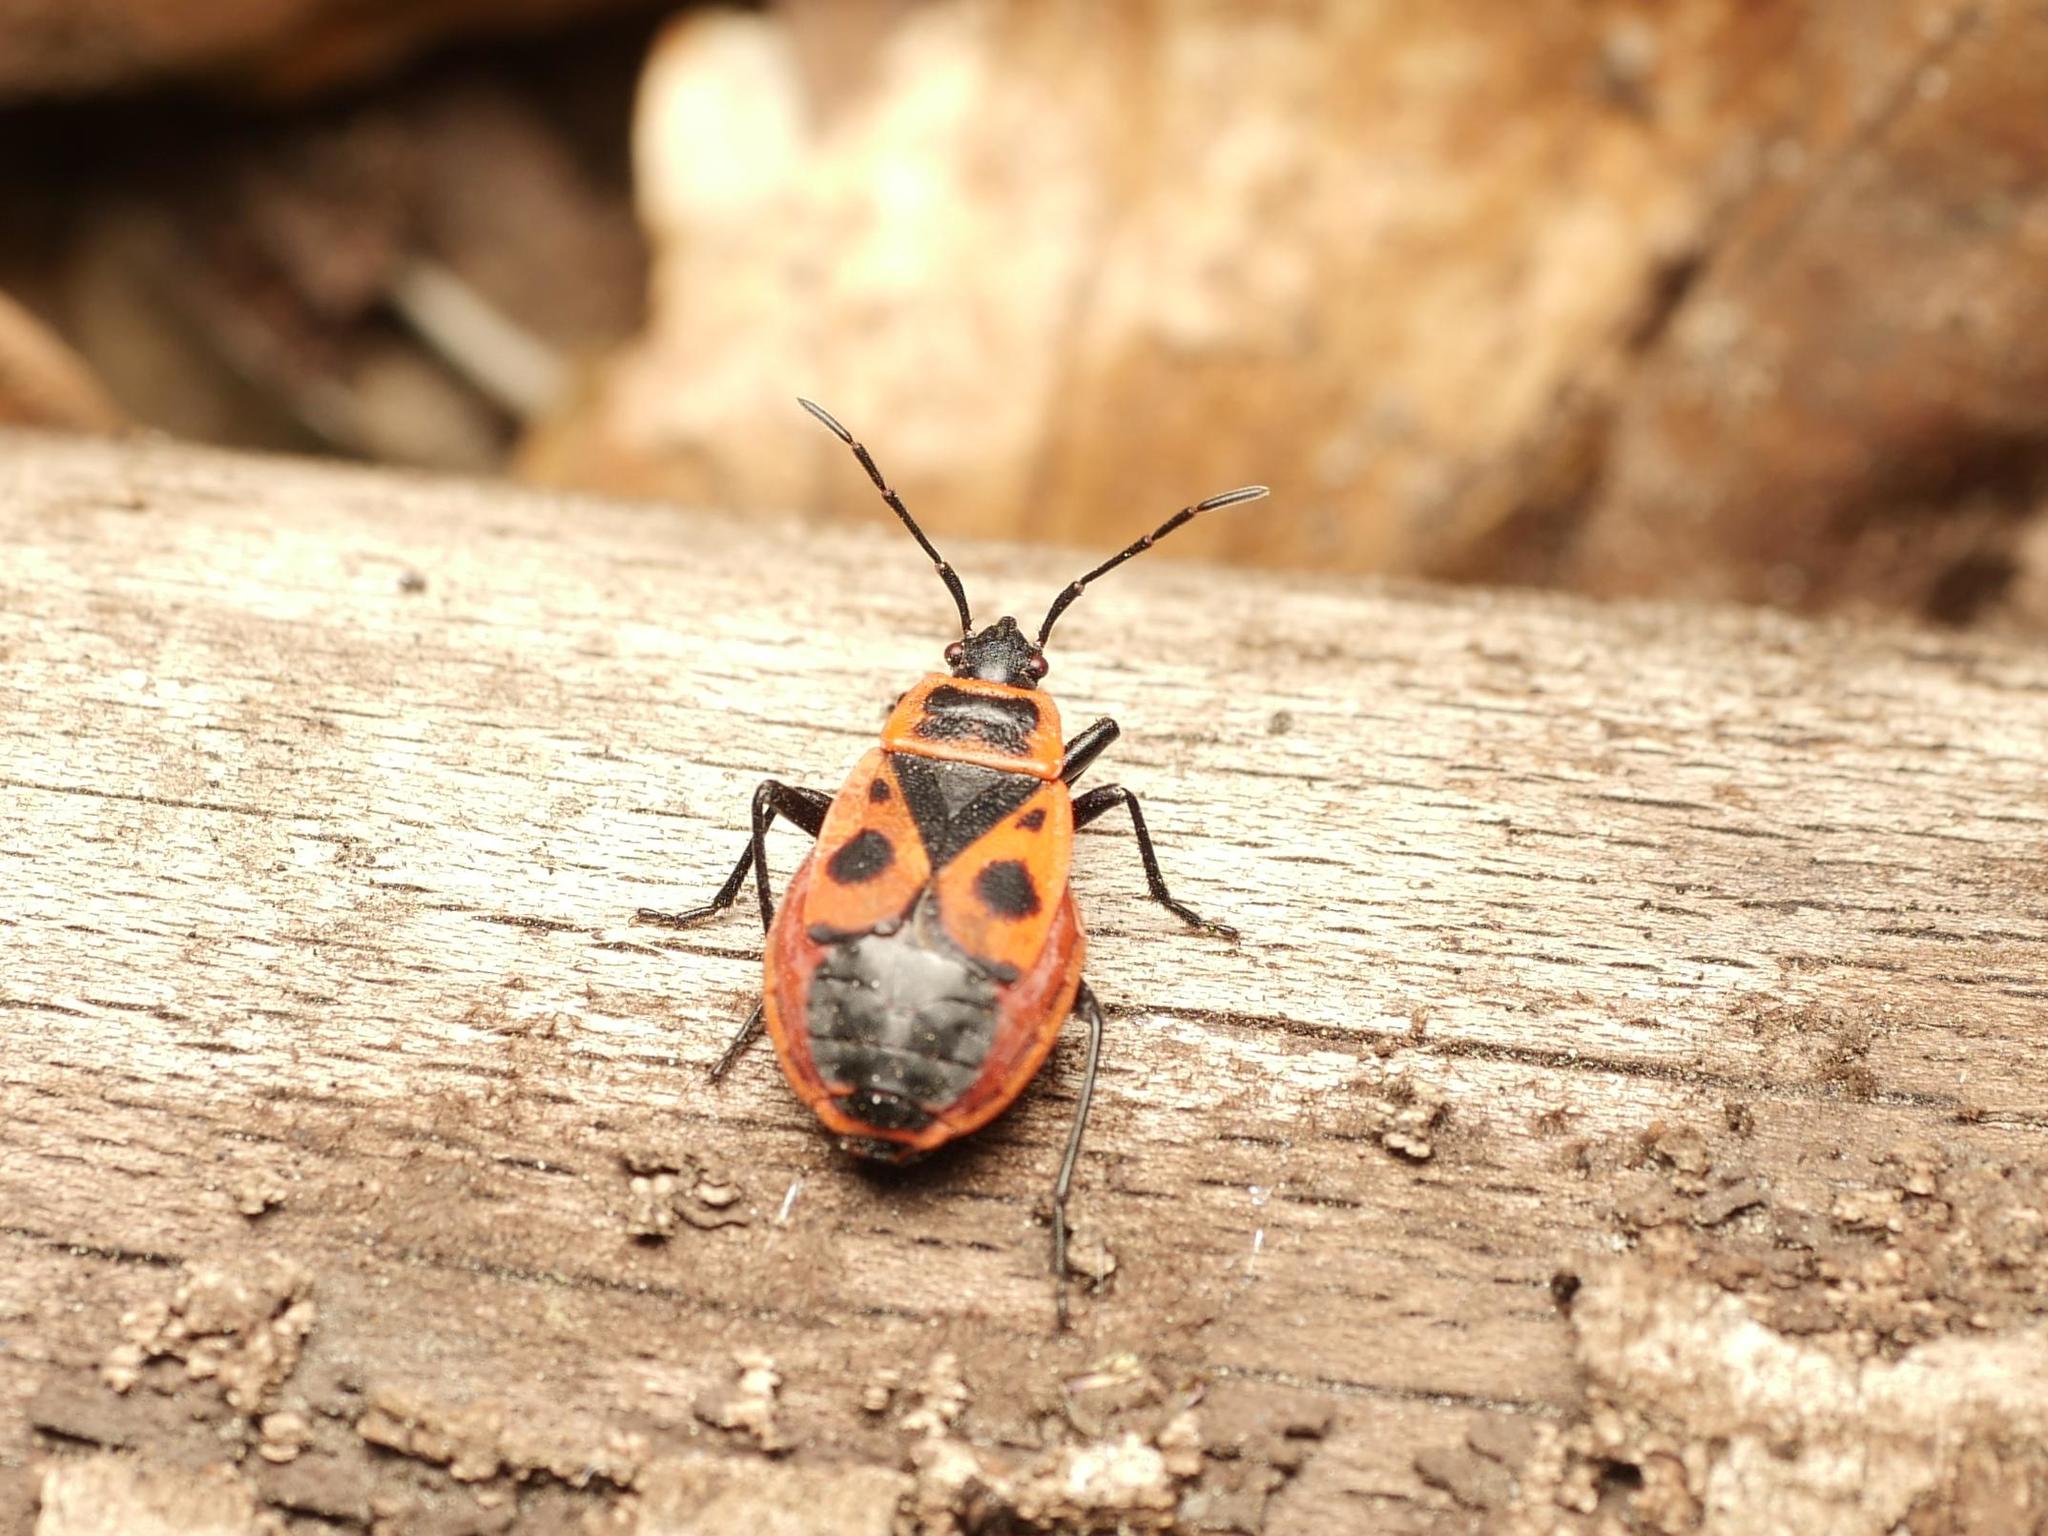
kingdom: Animalia
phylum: Arthropoda
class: Insecta
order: Hemiptera
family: Pyrrhocoridae
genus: Pyrrhocoris
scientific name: Pyrrhocoris apterus
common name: Firebug
